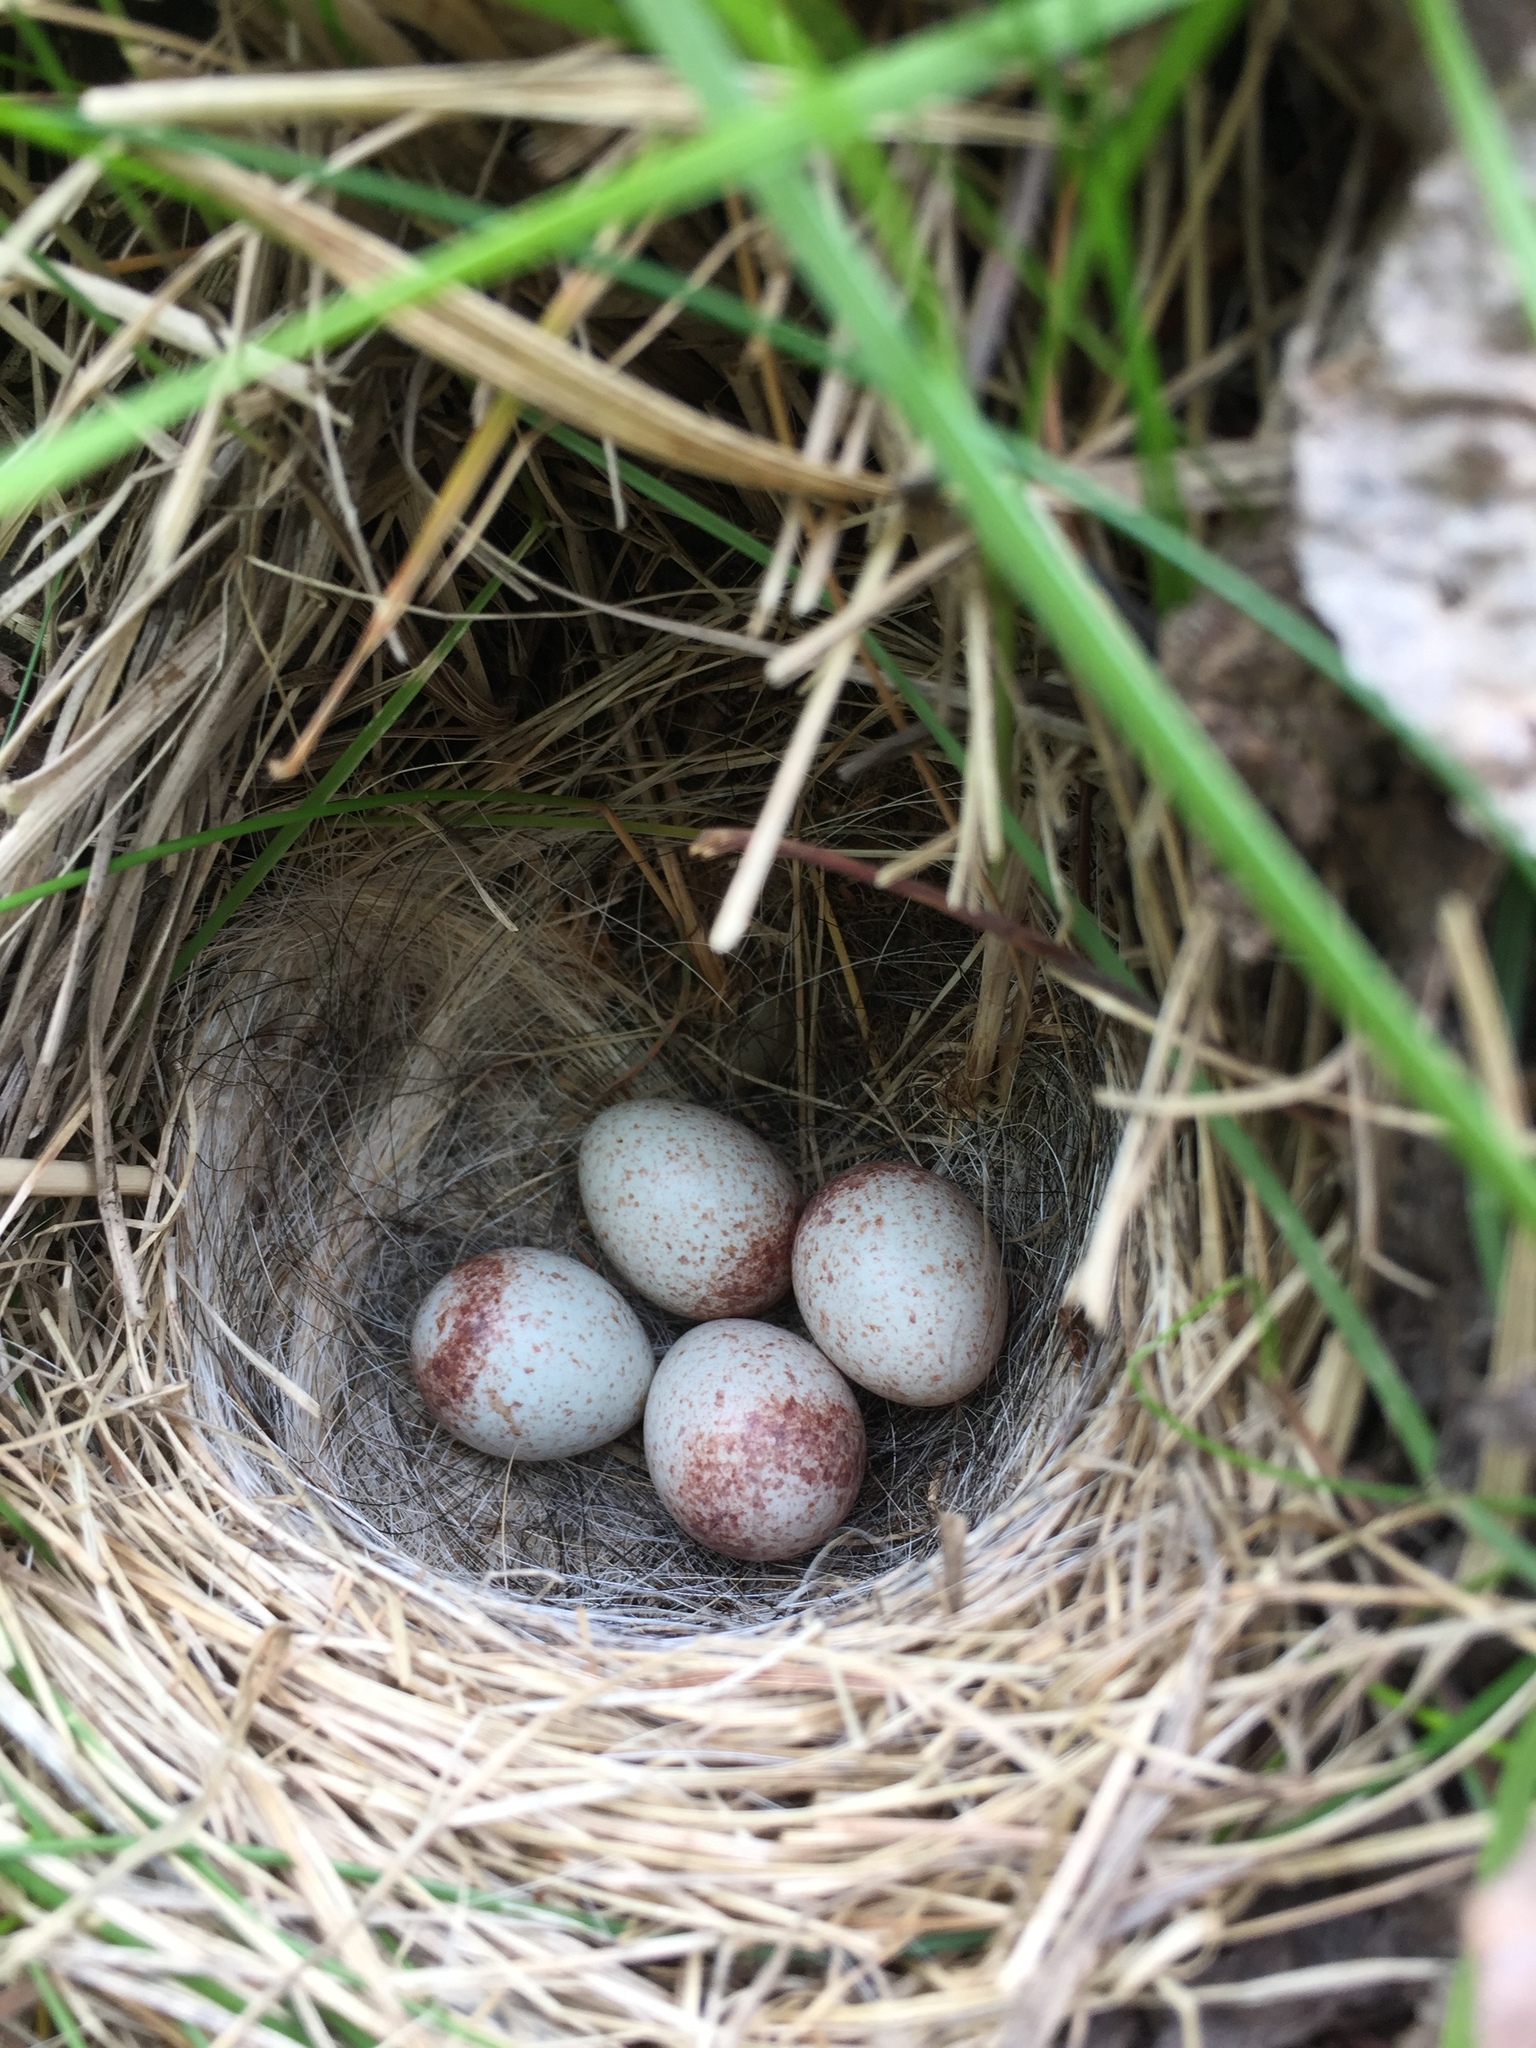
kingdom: Animalia
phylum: Chordata
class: Aves
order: Passeriformes
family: Passerellidae
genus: Junco
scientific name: Junco hyemalis
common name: Dark-eyed junco
